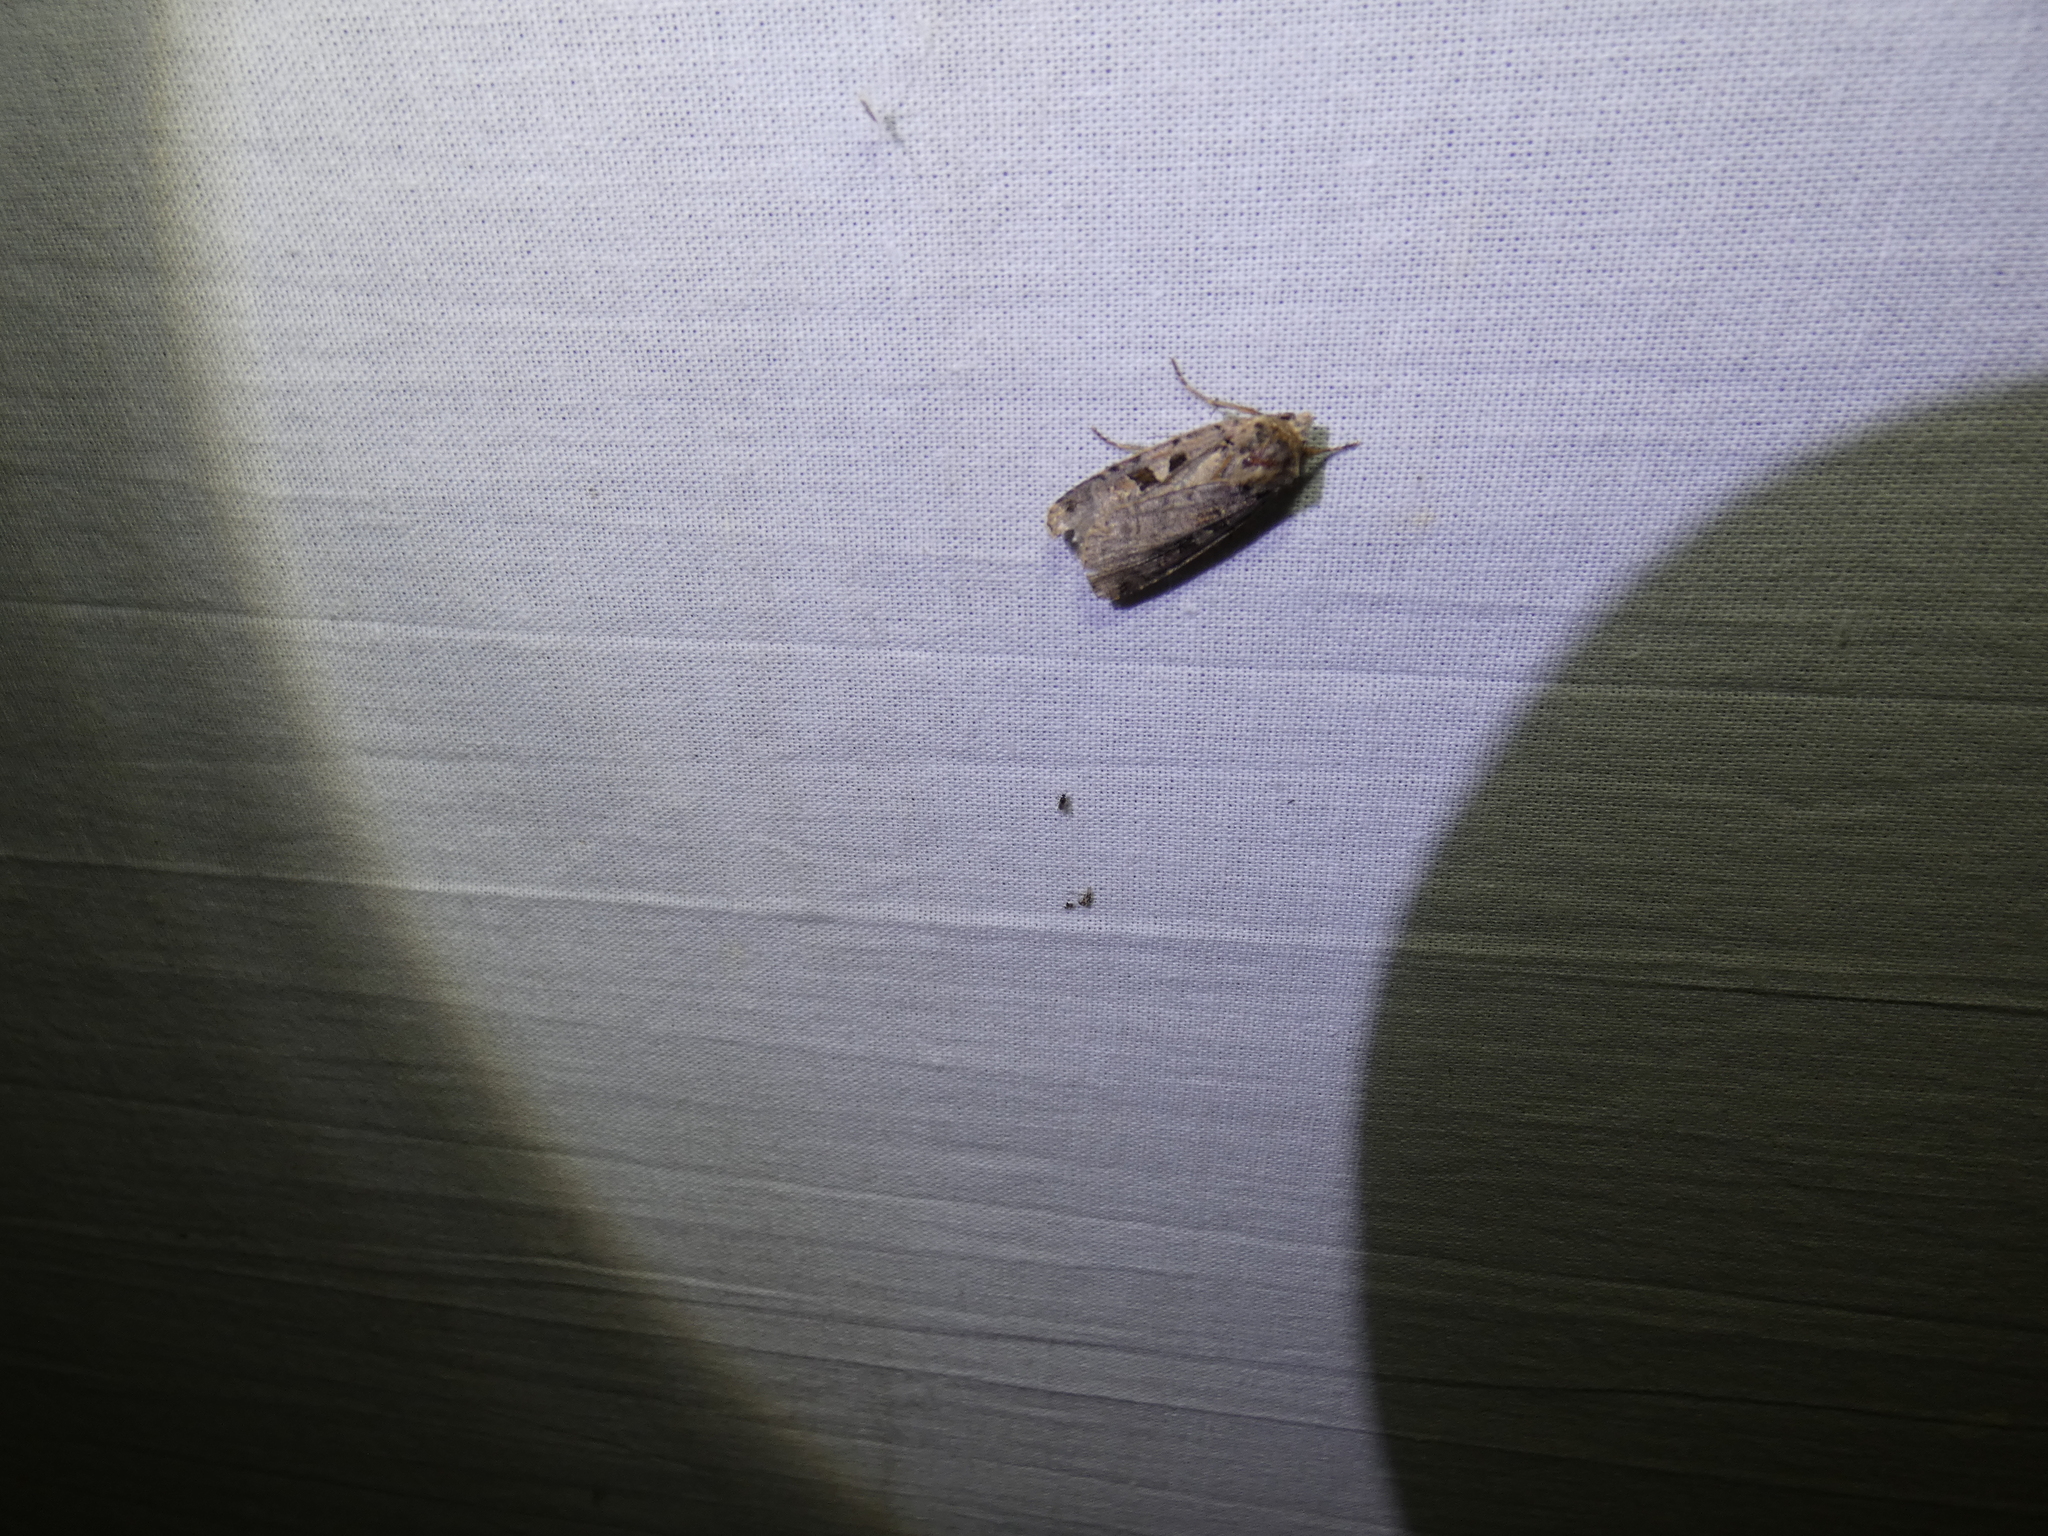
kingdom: Animalia
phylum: Arthropoda
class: Insecta
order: Lepidoptera
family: Noctuidae
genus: Xestia
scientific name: Xestia ditrapezium
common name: Triple-spotted clay
